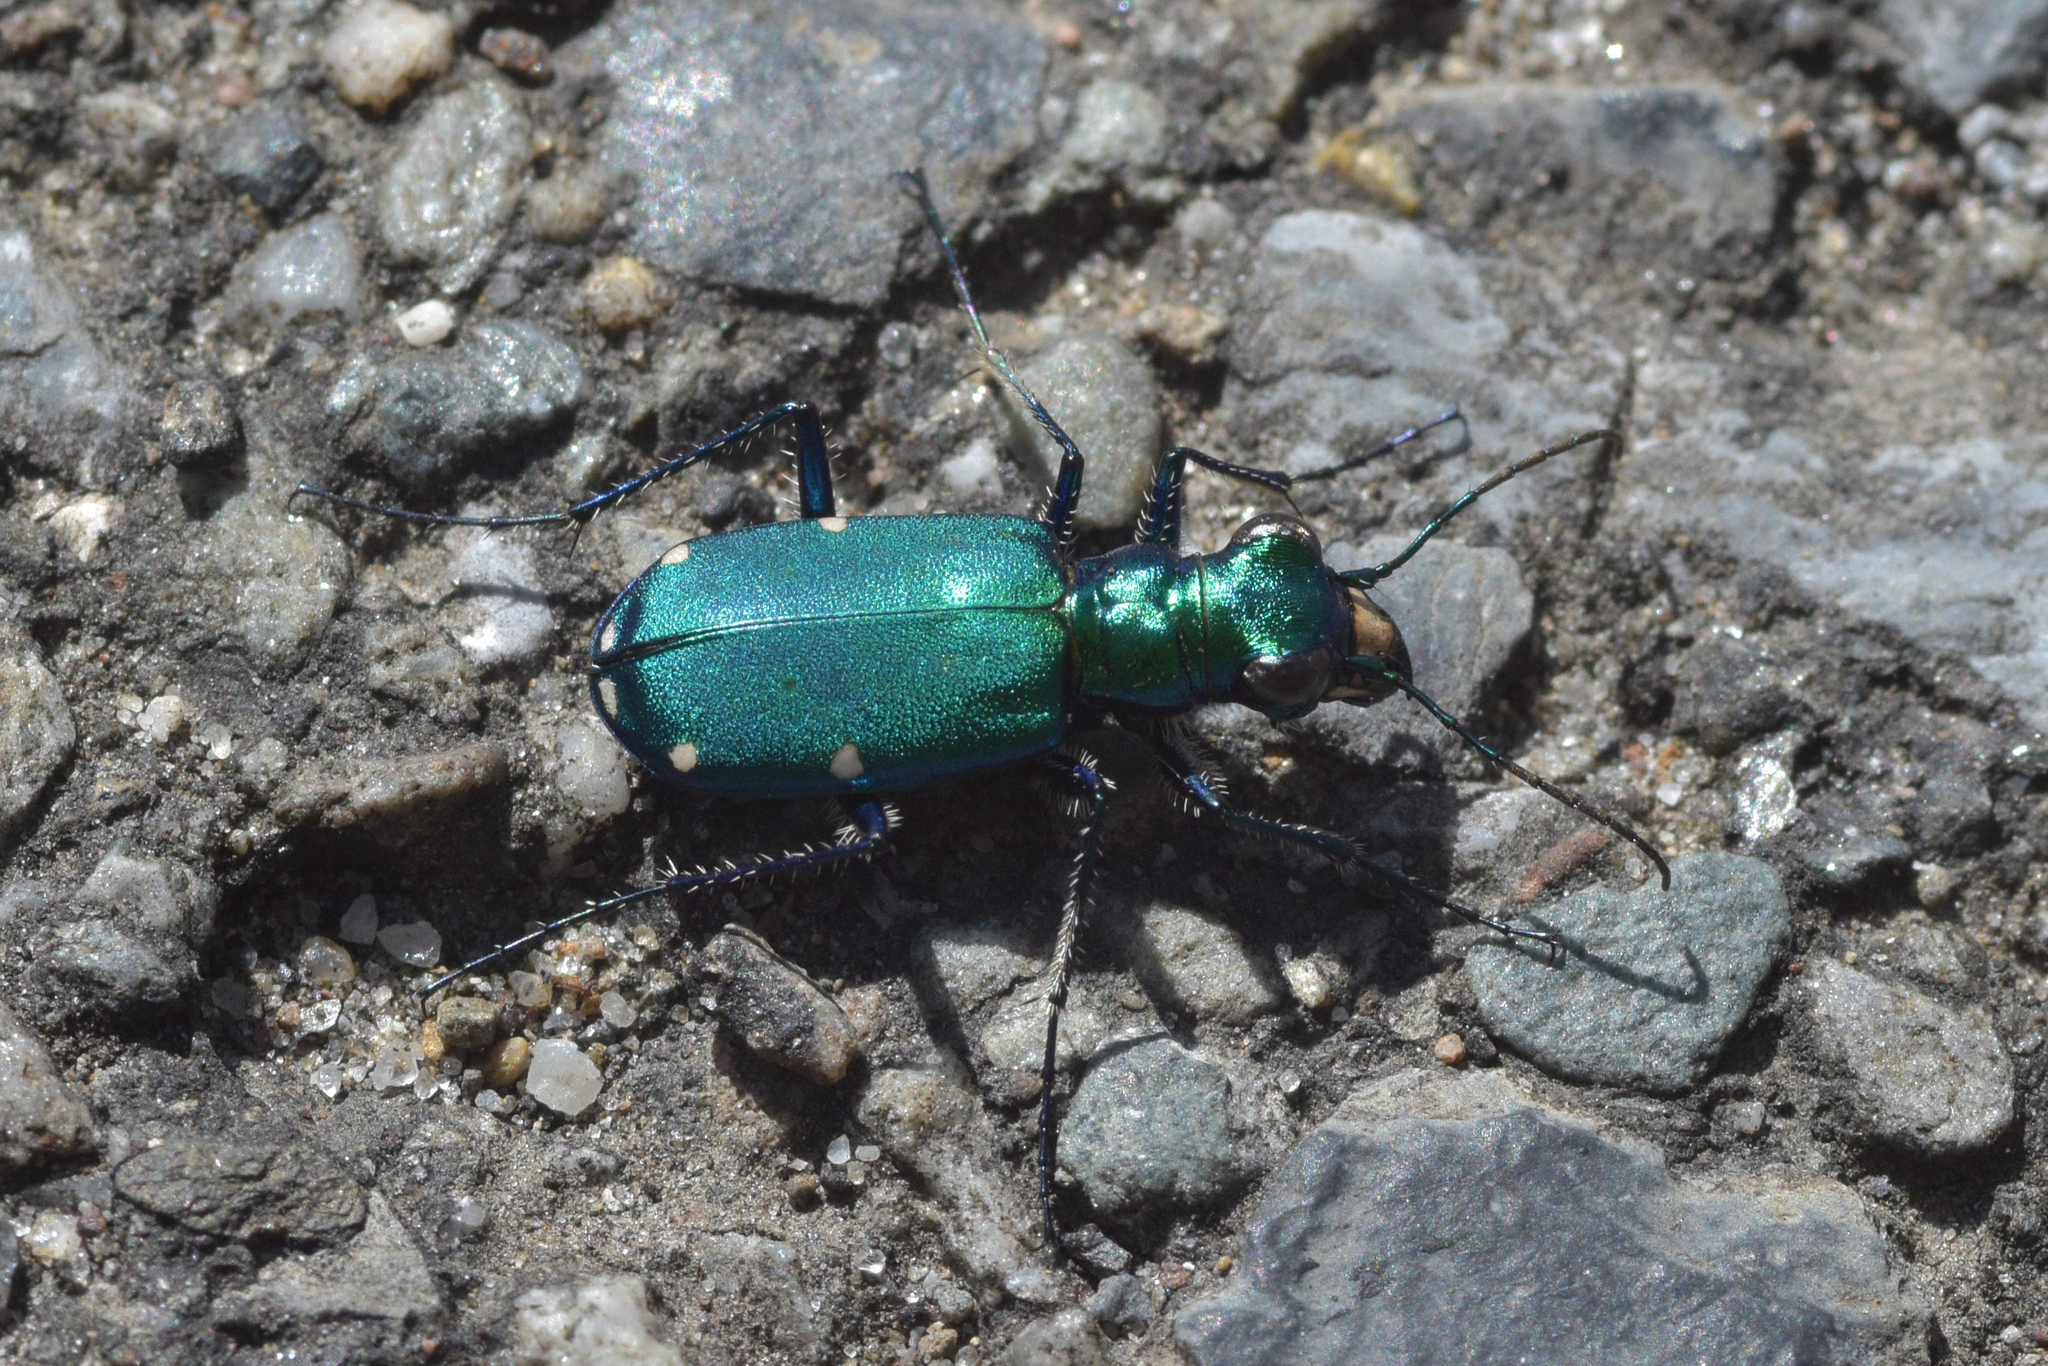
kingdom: Animalia
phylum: Arthropoda
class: Insecta
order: Coleoptera
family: Carabidae
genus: Cicindela
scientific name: Cicindela sexguttata
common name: Six-spotted tiger beetle
